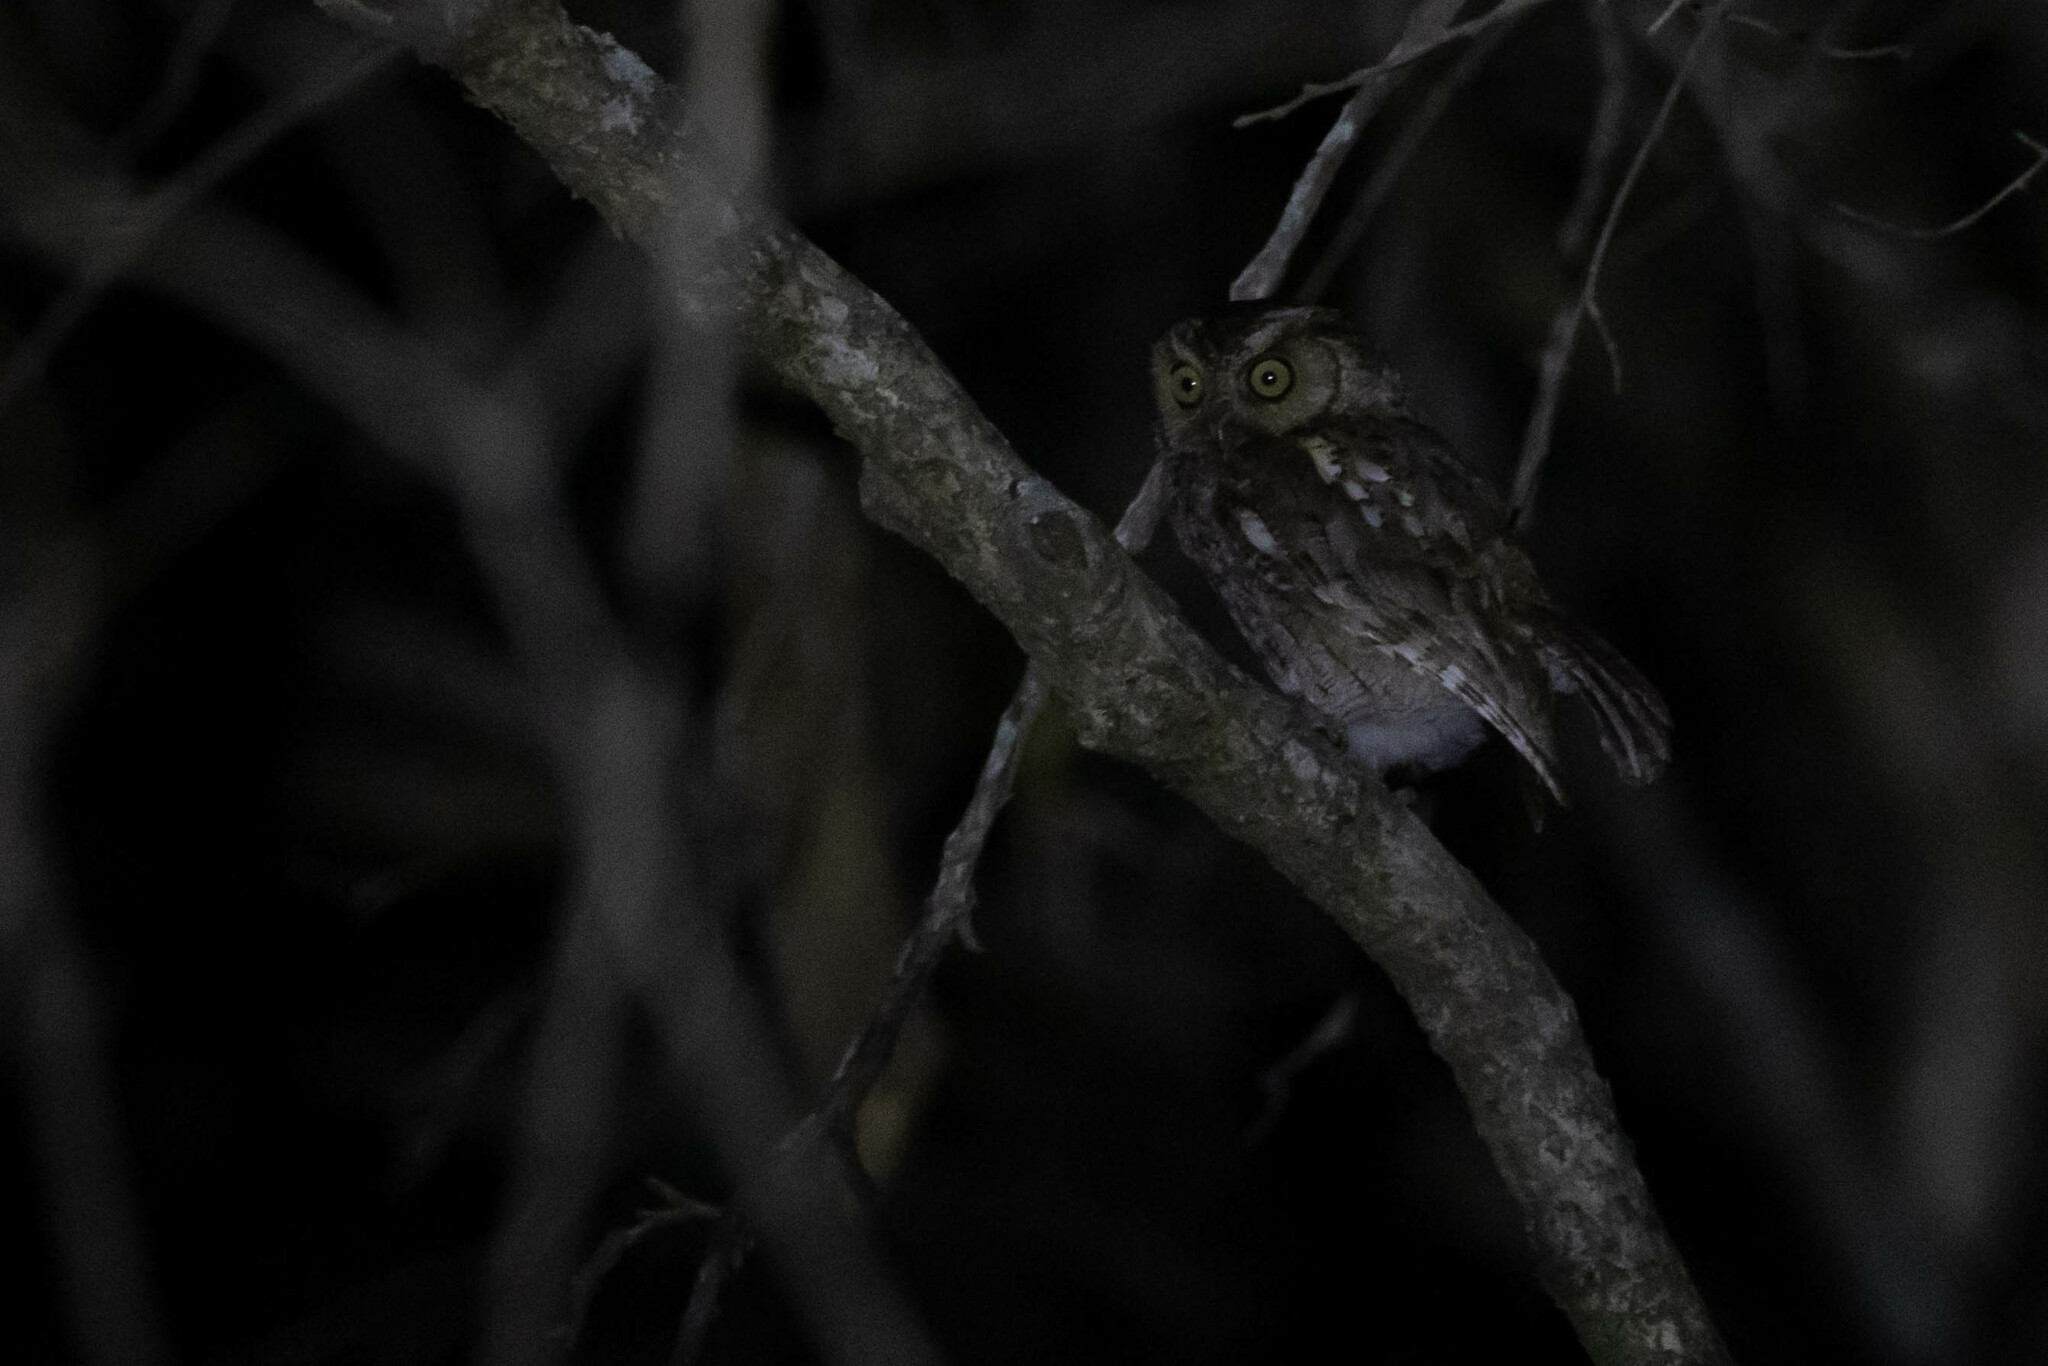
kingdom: Animalia
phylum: Chordata
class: Aves
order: Strigiformes
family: Strigidae
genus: Megascops
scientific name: Megascops roboratus
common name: West peruvian screech owl
